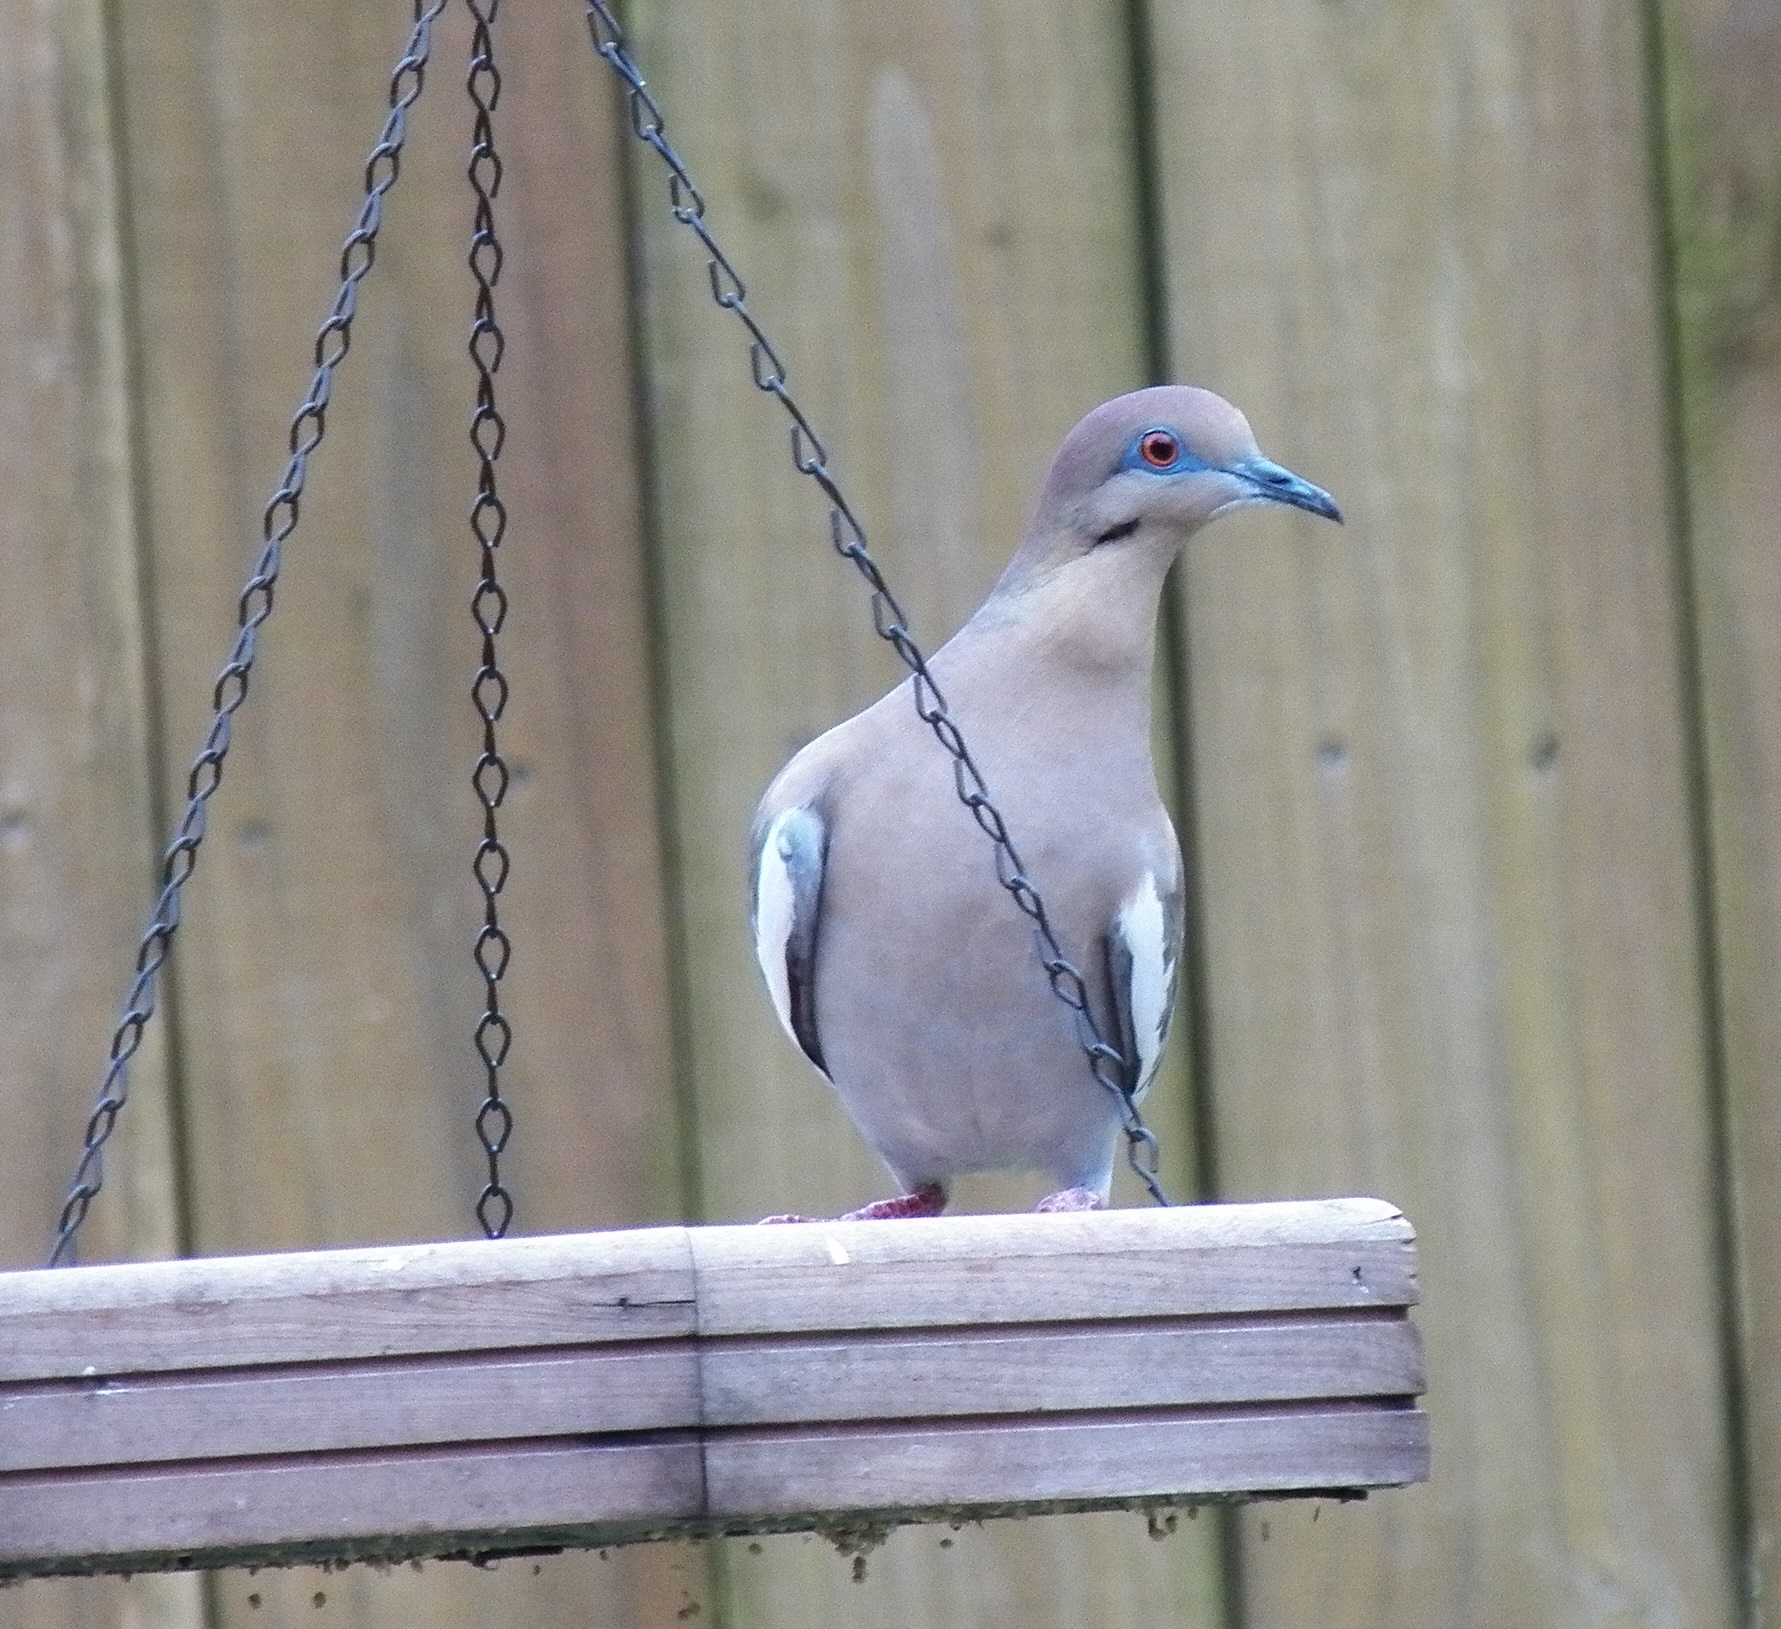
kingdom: Animalia
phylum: Chordata
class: Aves
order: Columbiformes
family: Columbidae
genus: Zenaida
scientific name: Zenaida asiatica
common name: White-winged dove
